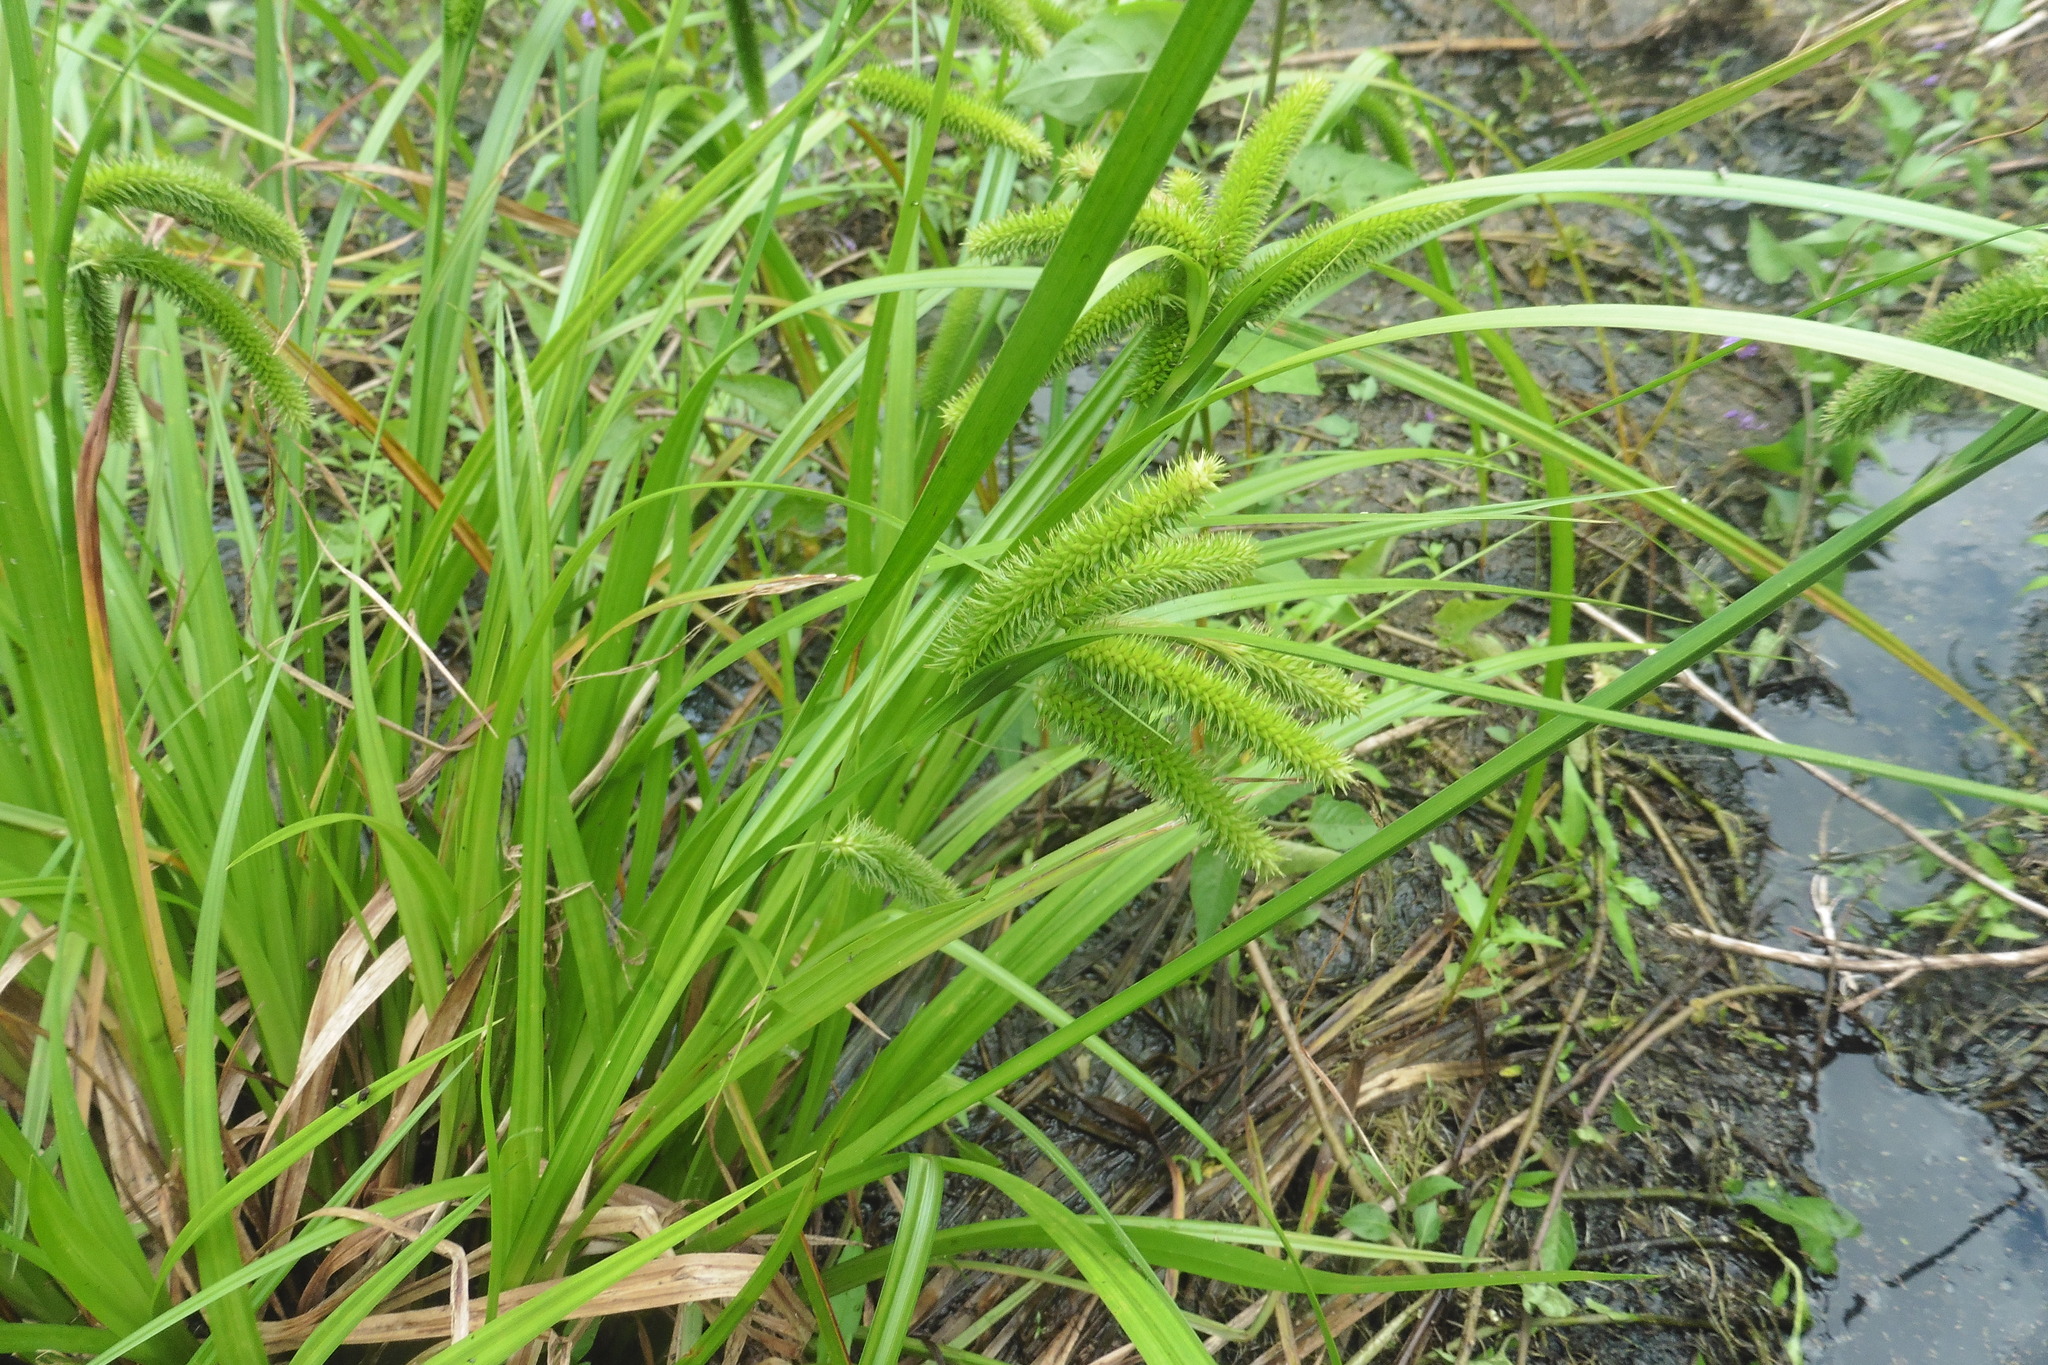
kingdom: Plantae
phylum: Tracheophyta
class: Liliopsida
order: Poales
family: Cyperaceae
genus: Carex
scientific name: Carex pseudocyperus
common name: Cyperus sedge
